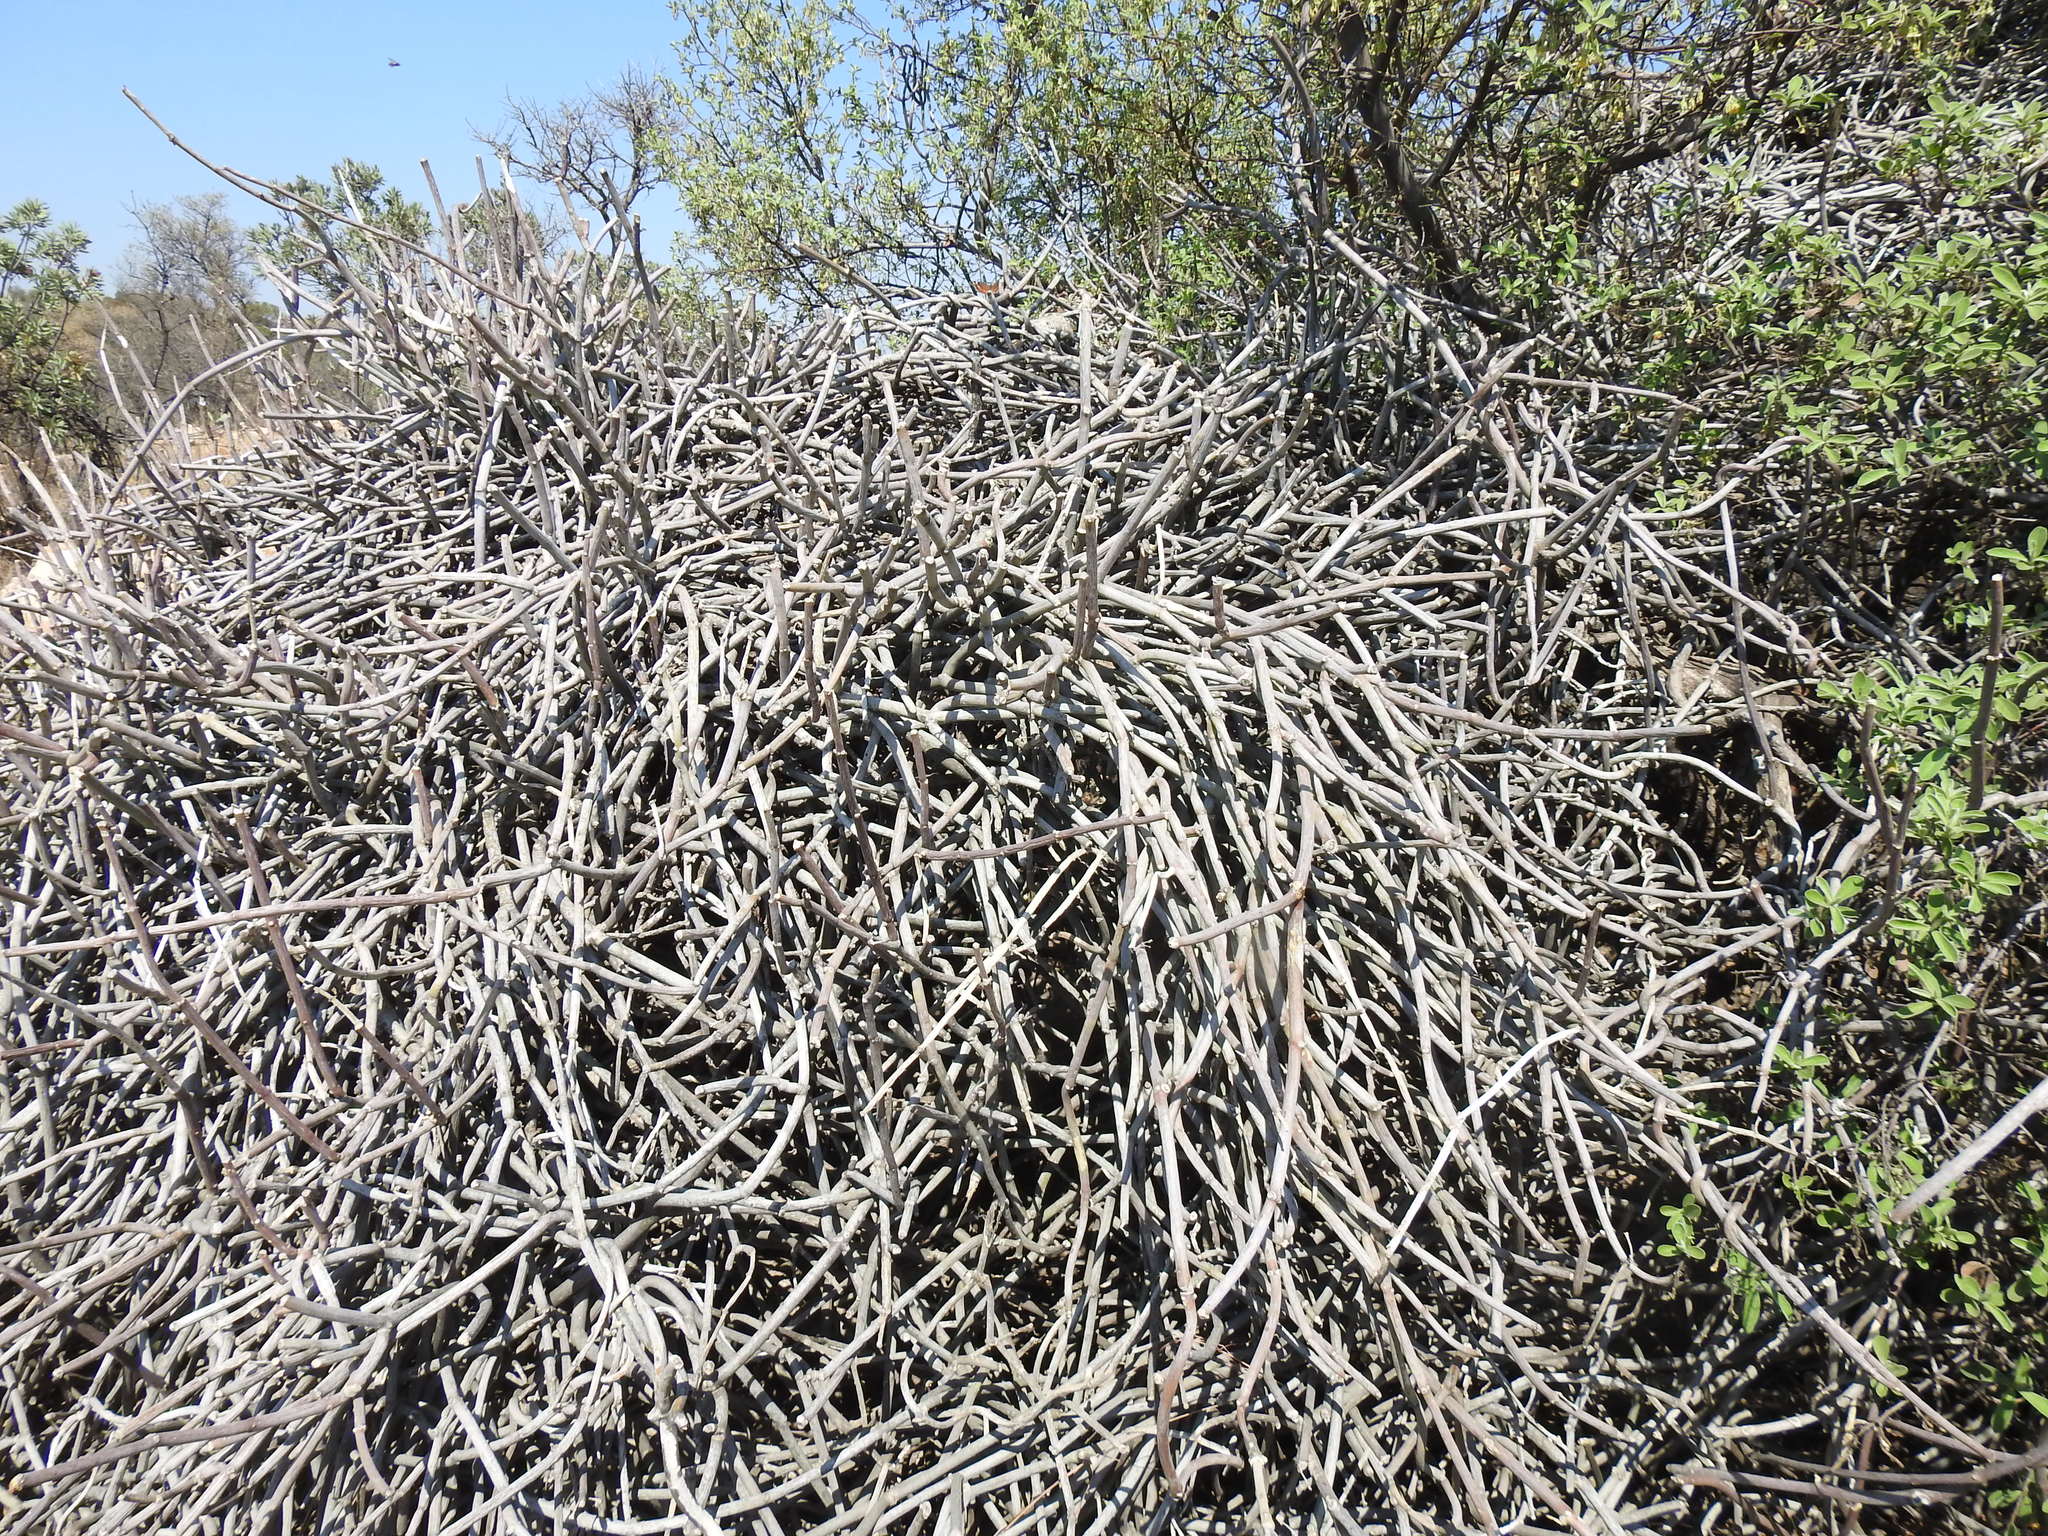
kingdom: Plantae
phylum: Tracheophyta
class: Magnoliopsida
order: Gentianales
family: Apocynaceae
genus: Cynanchum
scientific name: Cynanchum viminale
